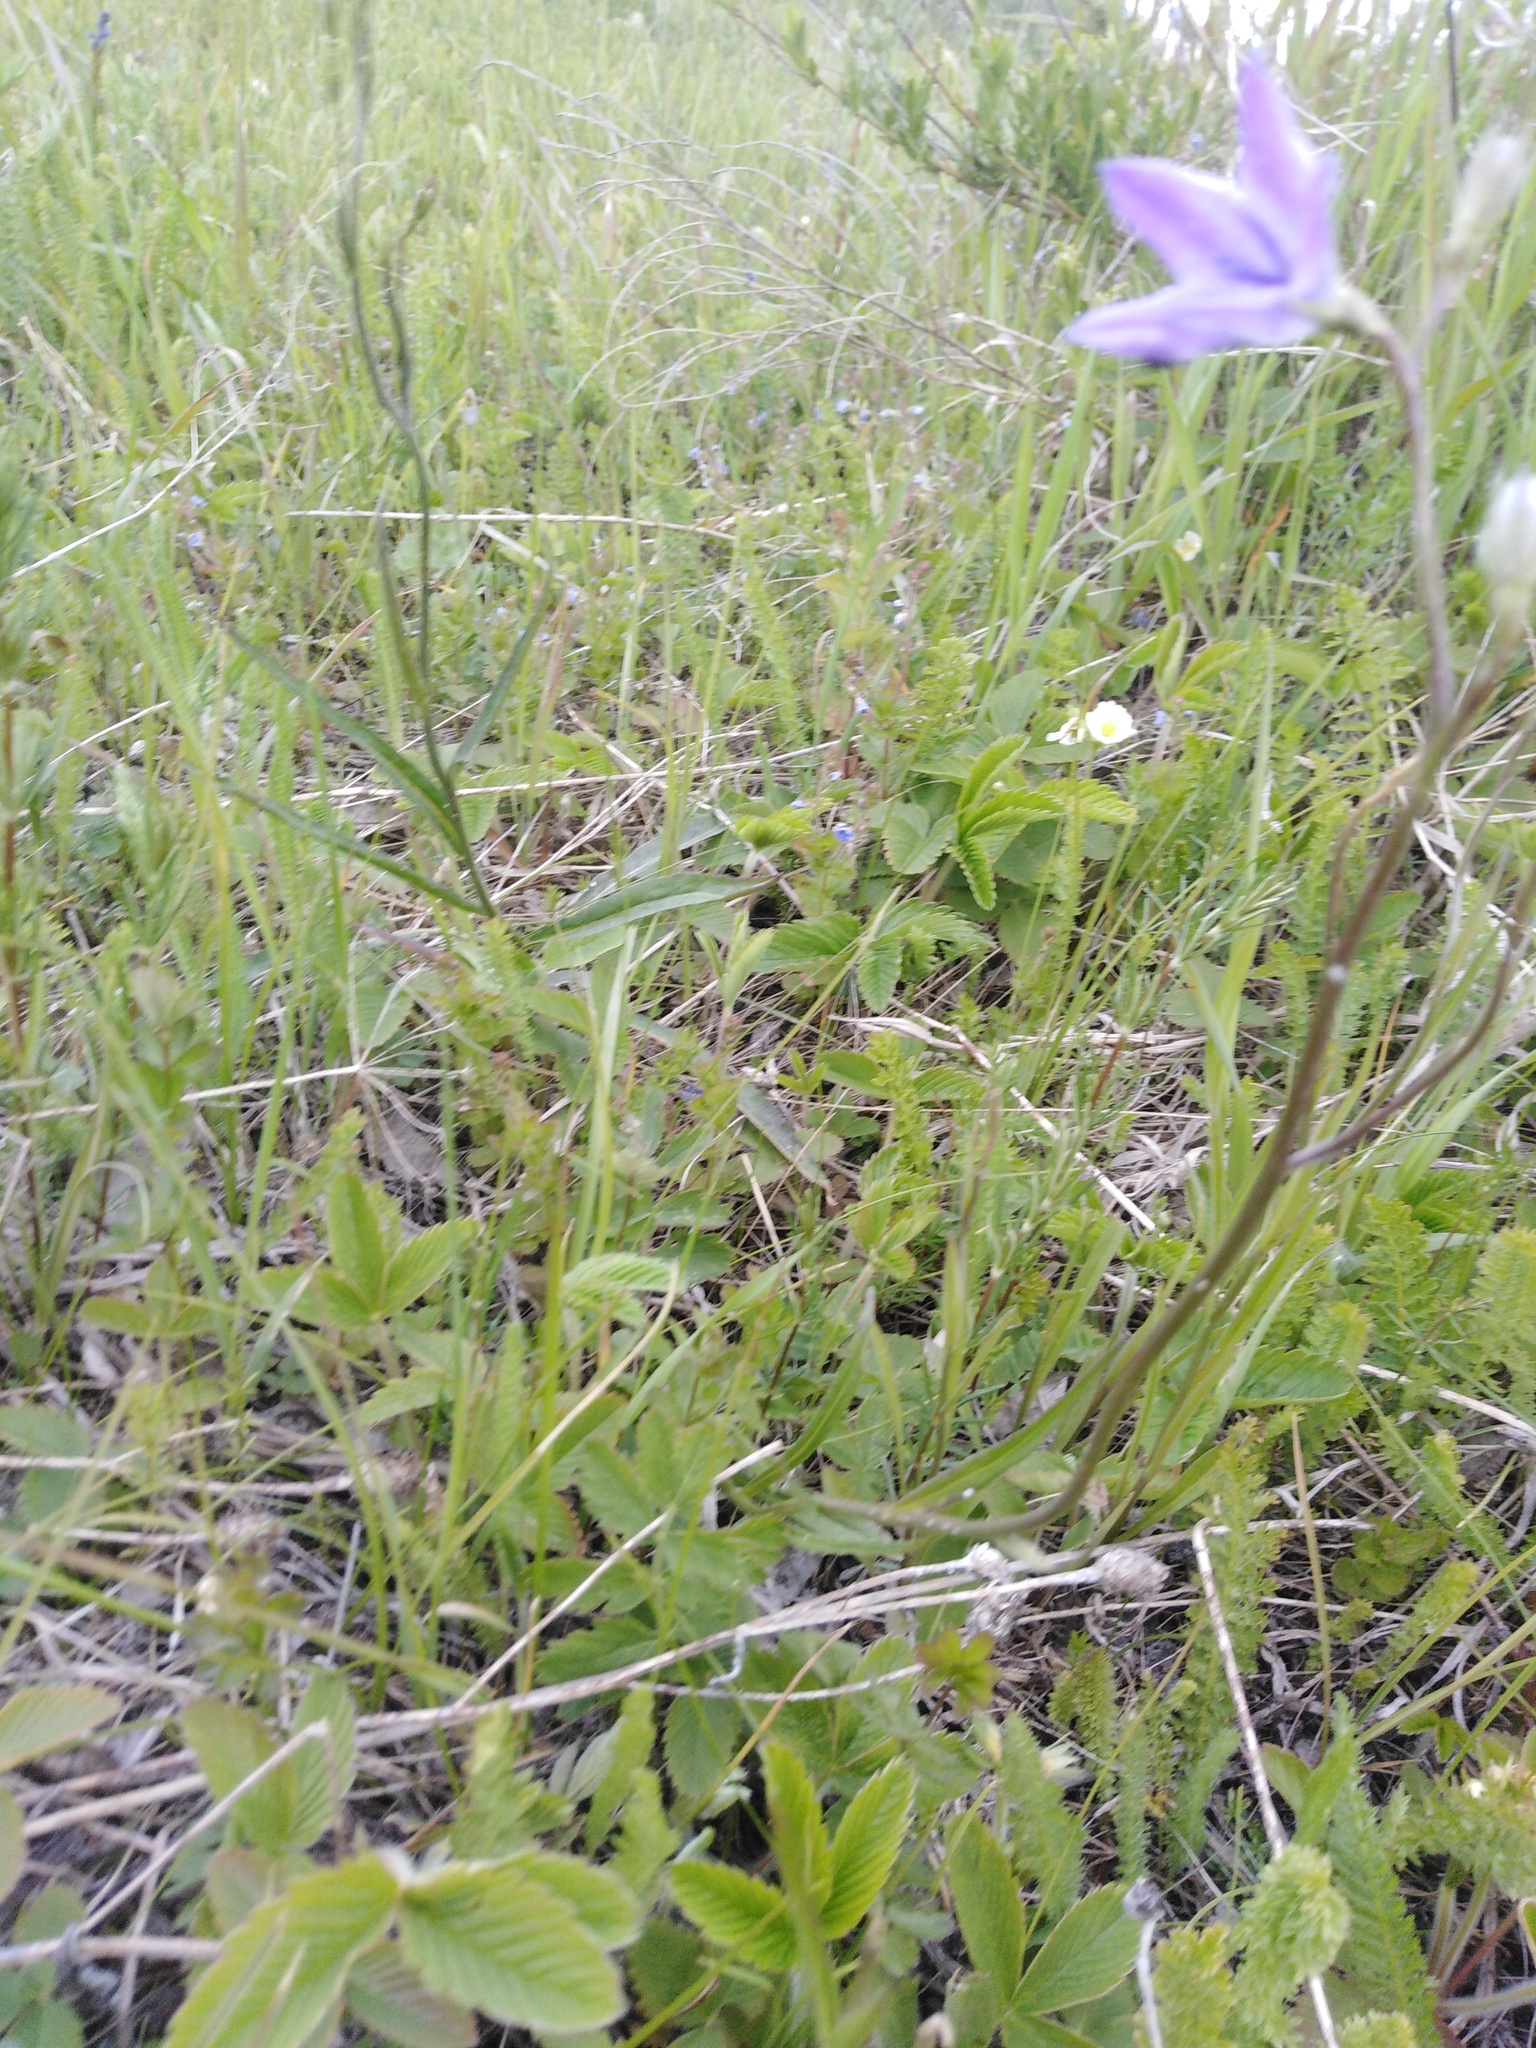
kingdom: Plantae
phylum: Tracheophyta
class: Magnoliopsida
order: Asterales
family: Campanulaceae
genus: Campanula
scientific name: Campanula stevenii
